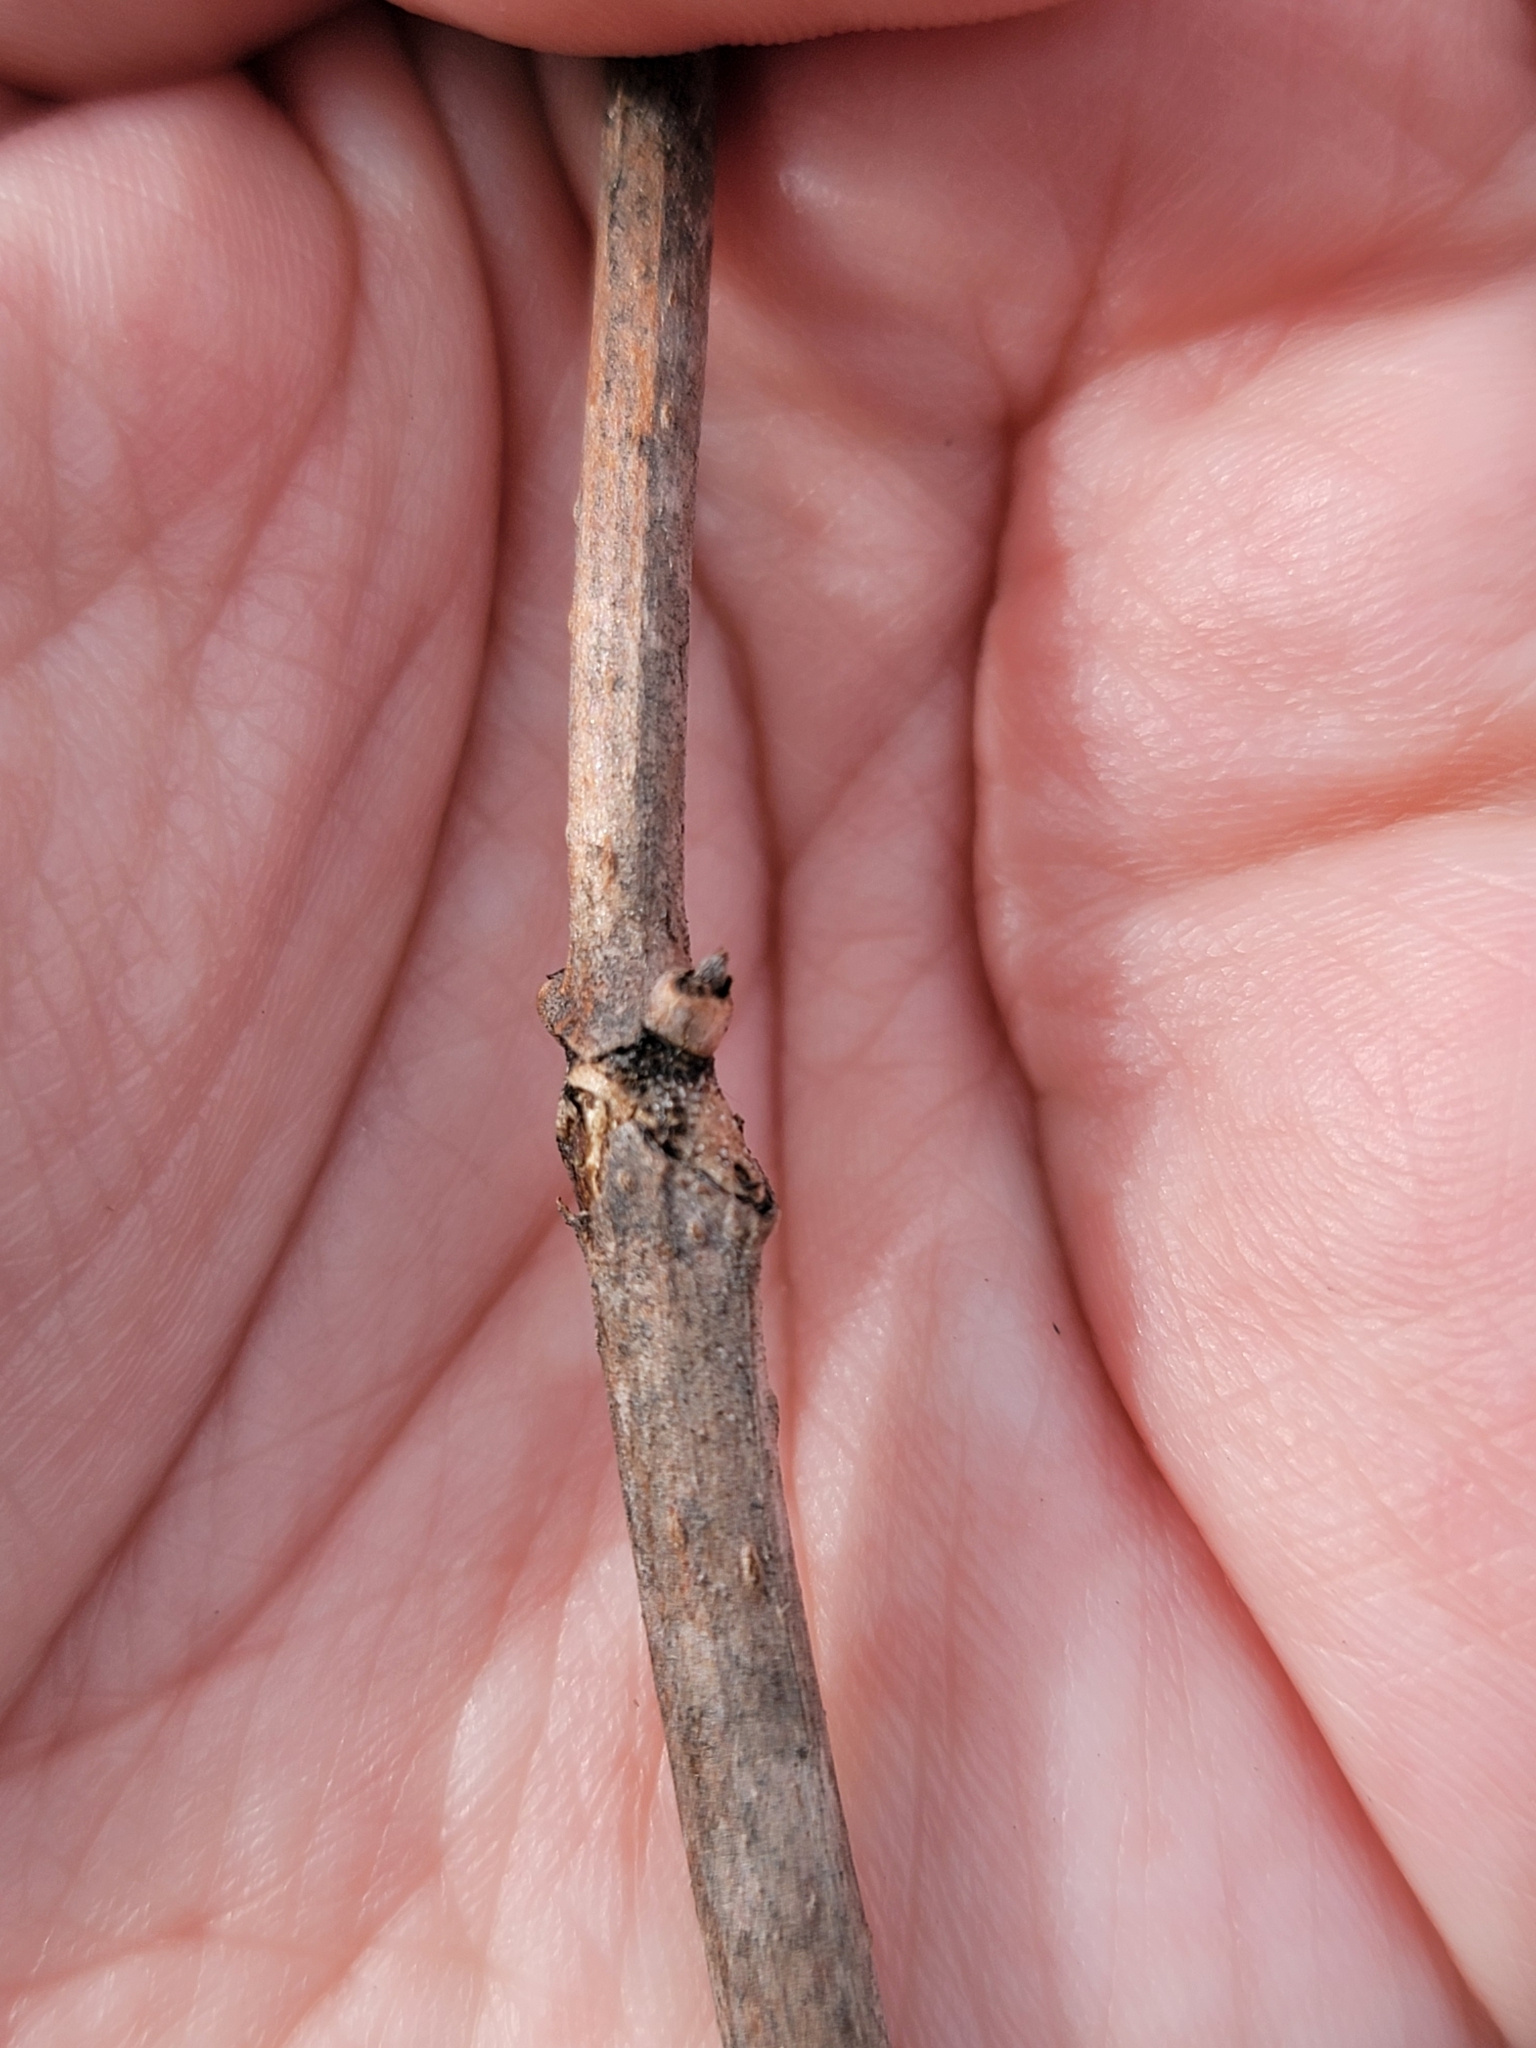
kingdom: Plantae
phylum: Tracheophyta
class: Magnoliopsida
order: Dipsacales
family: Viburnaceae
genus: Sambucus
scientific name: Sambucus racemosa
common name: Red-berried elder
